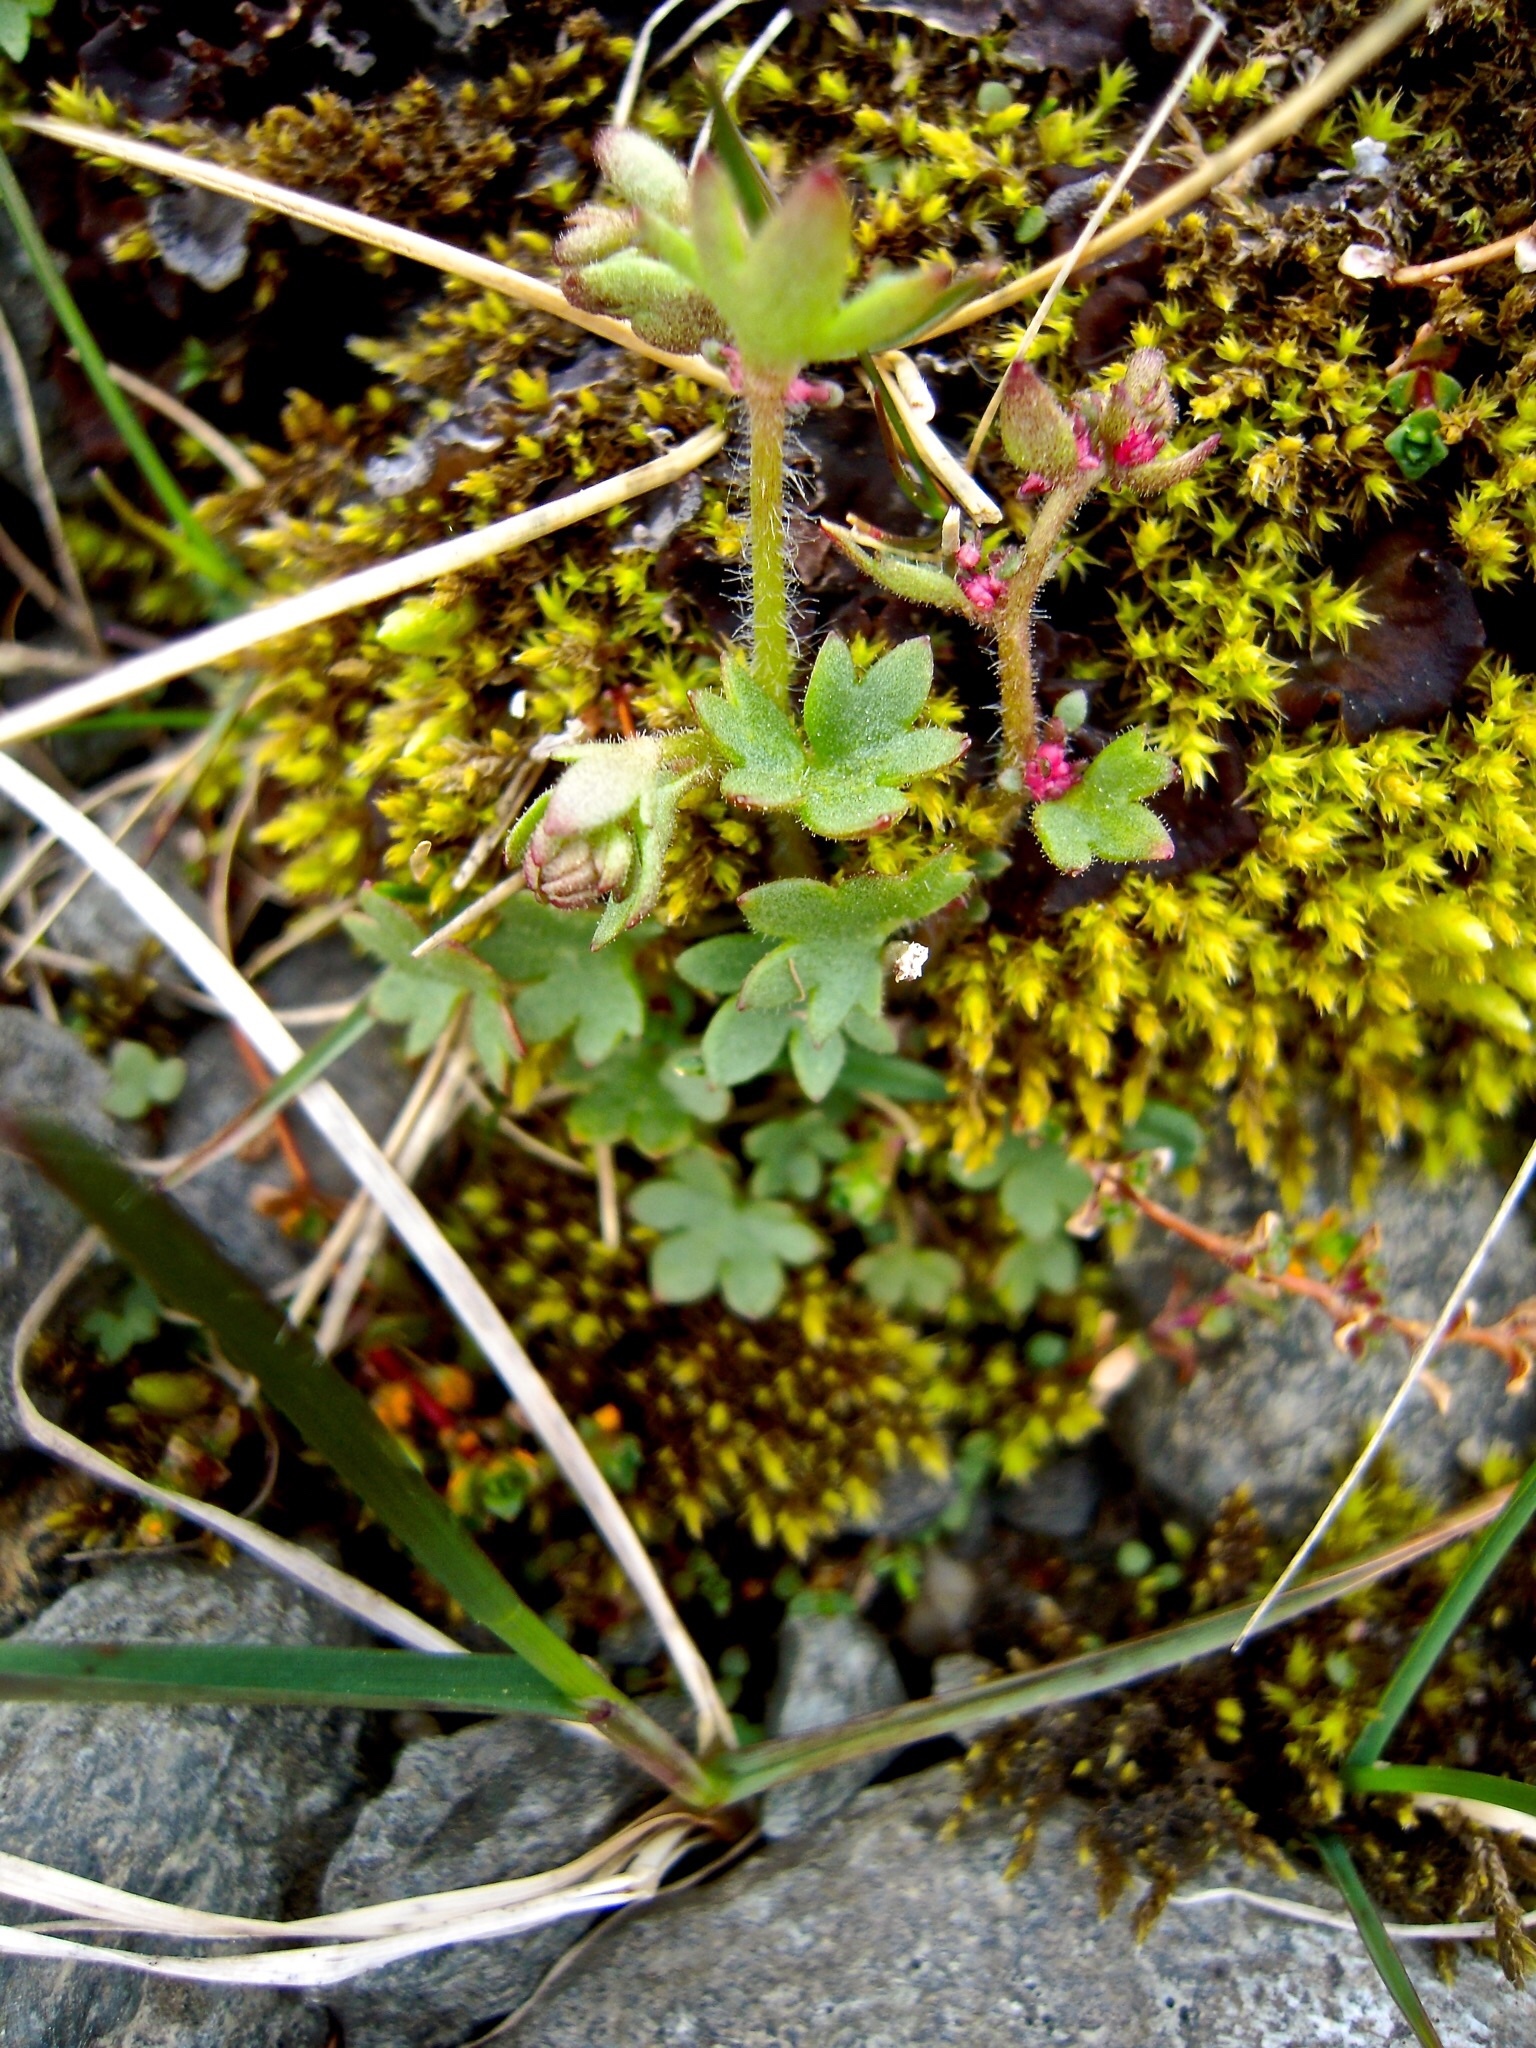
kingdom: Plantae
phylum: Tracheophyta
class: Magnoliopsida
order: Saxifragales
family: Saxifragaceae
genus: Saxifraga
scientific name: Saxifraga cernua
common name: Drooping saxifrage
